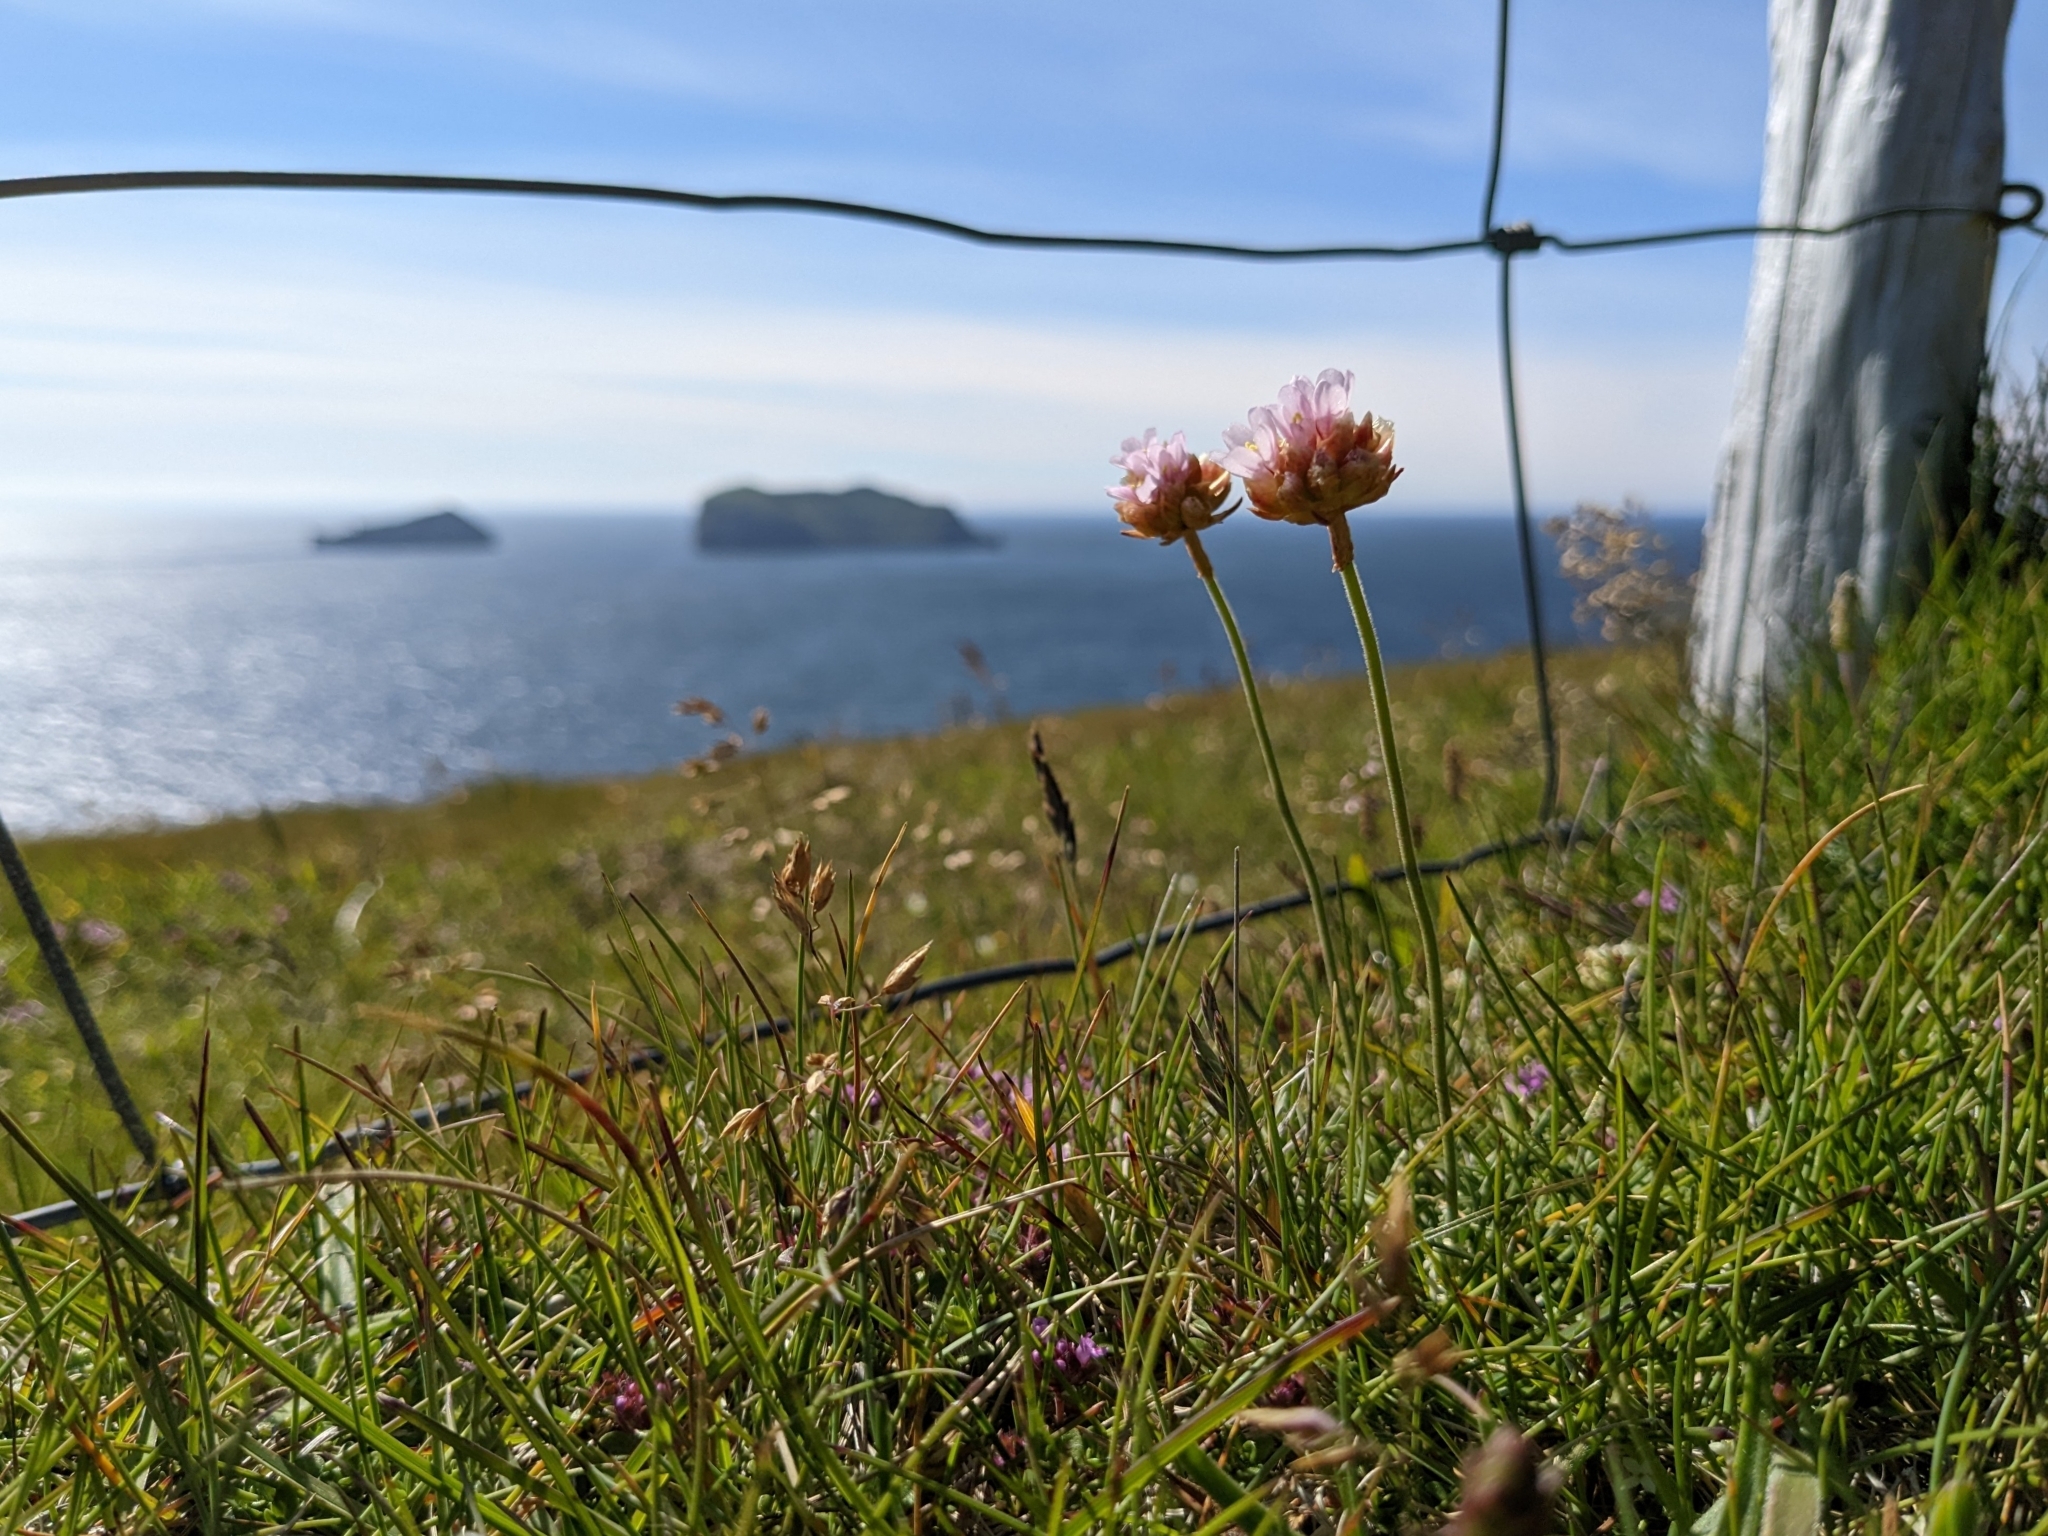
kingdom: Plantae
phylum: Tracheophyta
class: Magnoliopsida
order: Caryophyllales
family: Plumbaginaceae
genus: Armeria
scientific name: Armeria maritima
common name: Thrift
